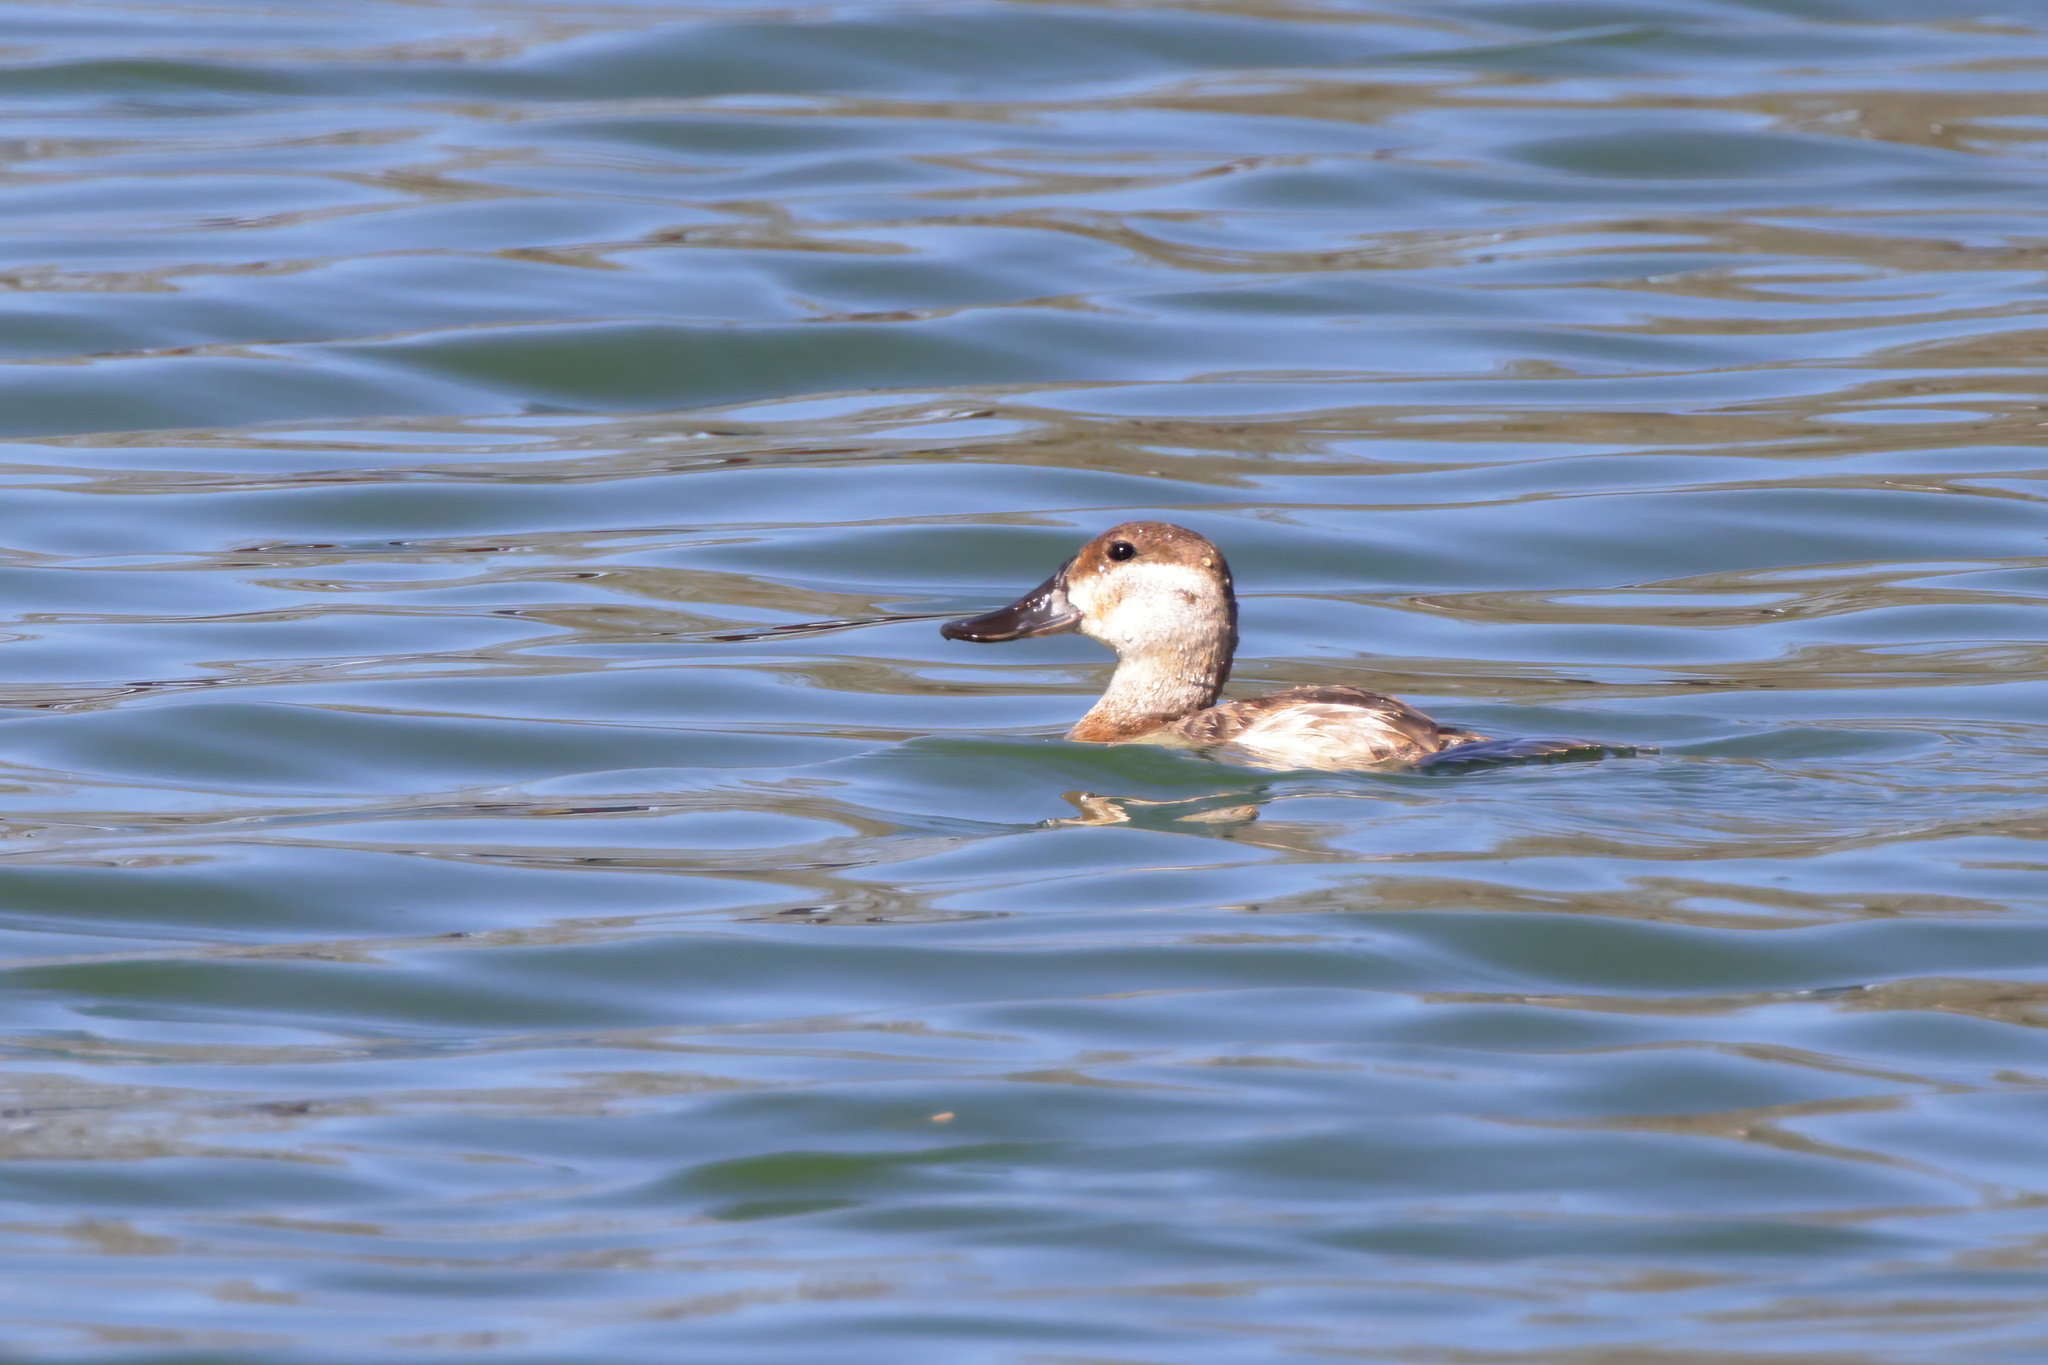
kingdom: Animalia
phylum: Chordata
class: Aves
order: Anseriformes
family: Anatidae
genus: Oxyura
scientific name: Oxyura jamaicensis
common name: Ruddy duck
